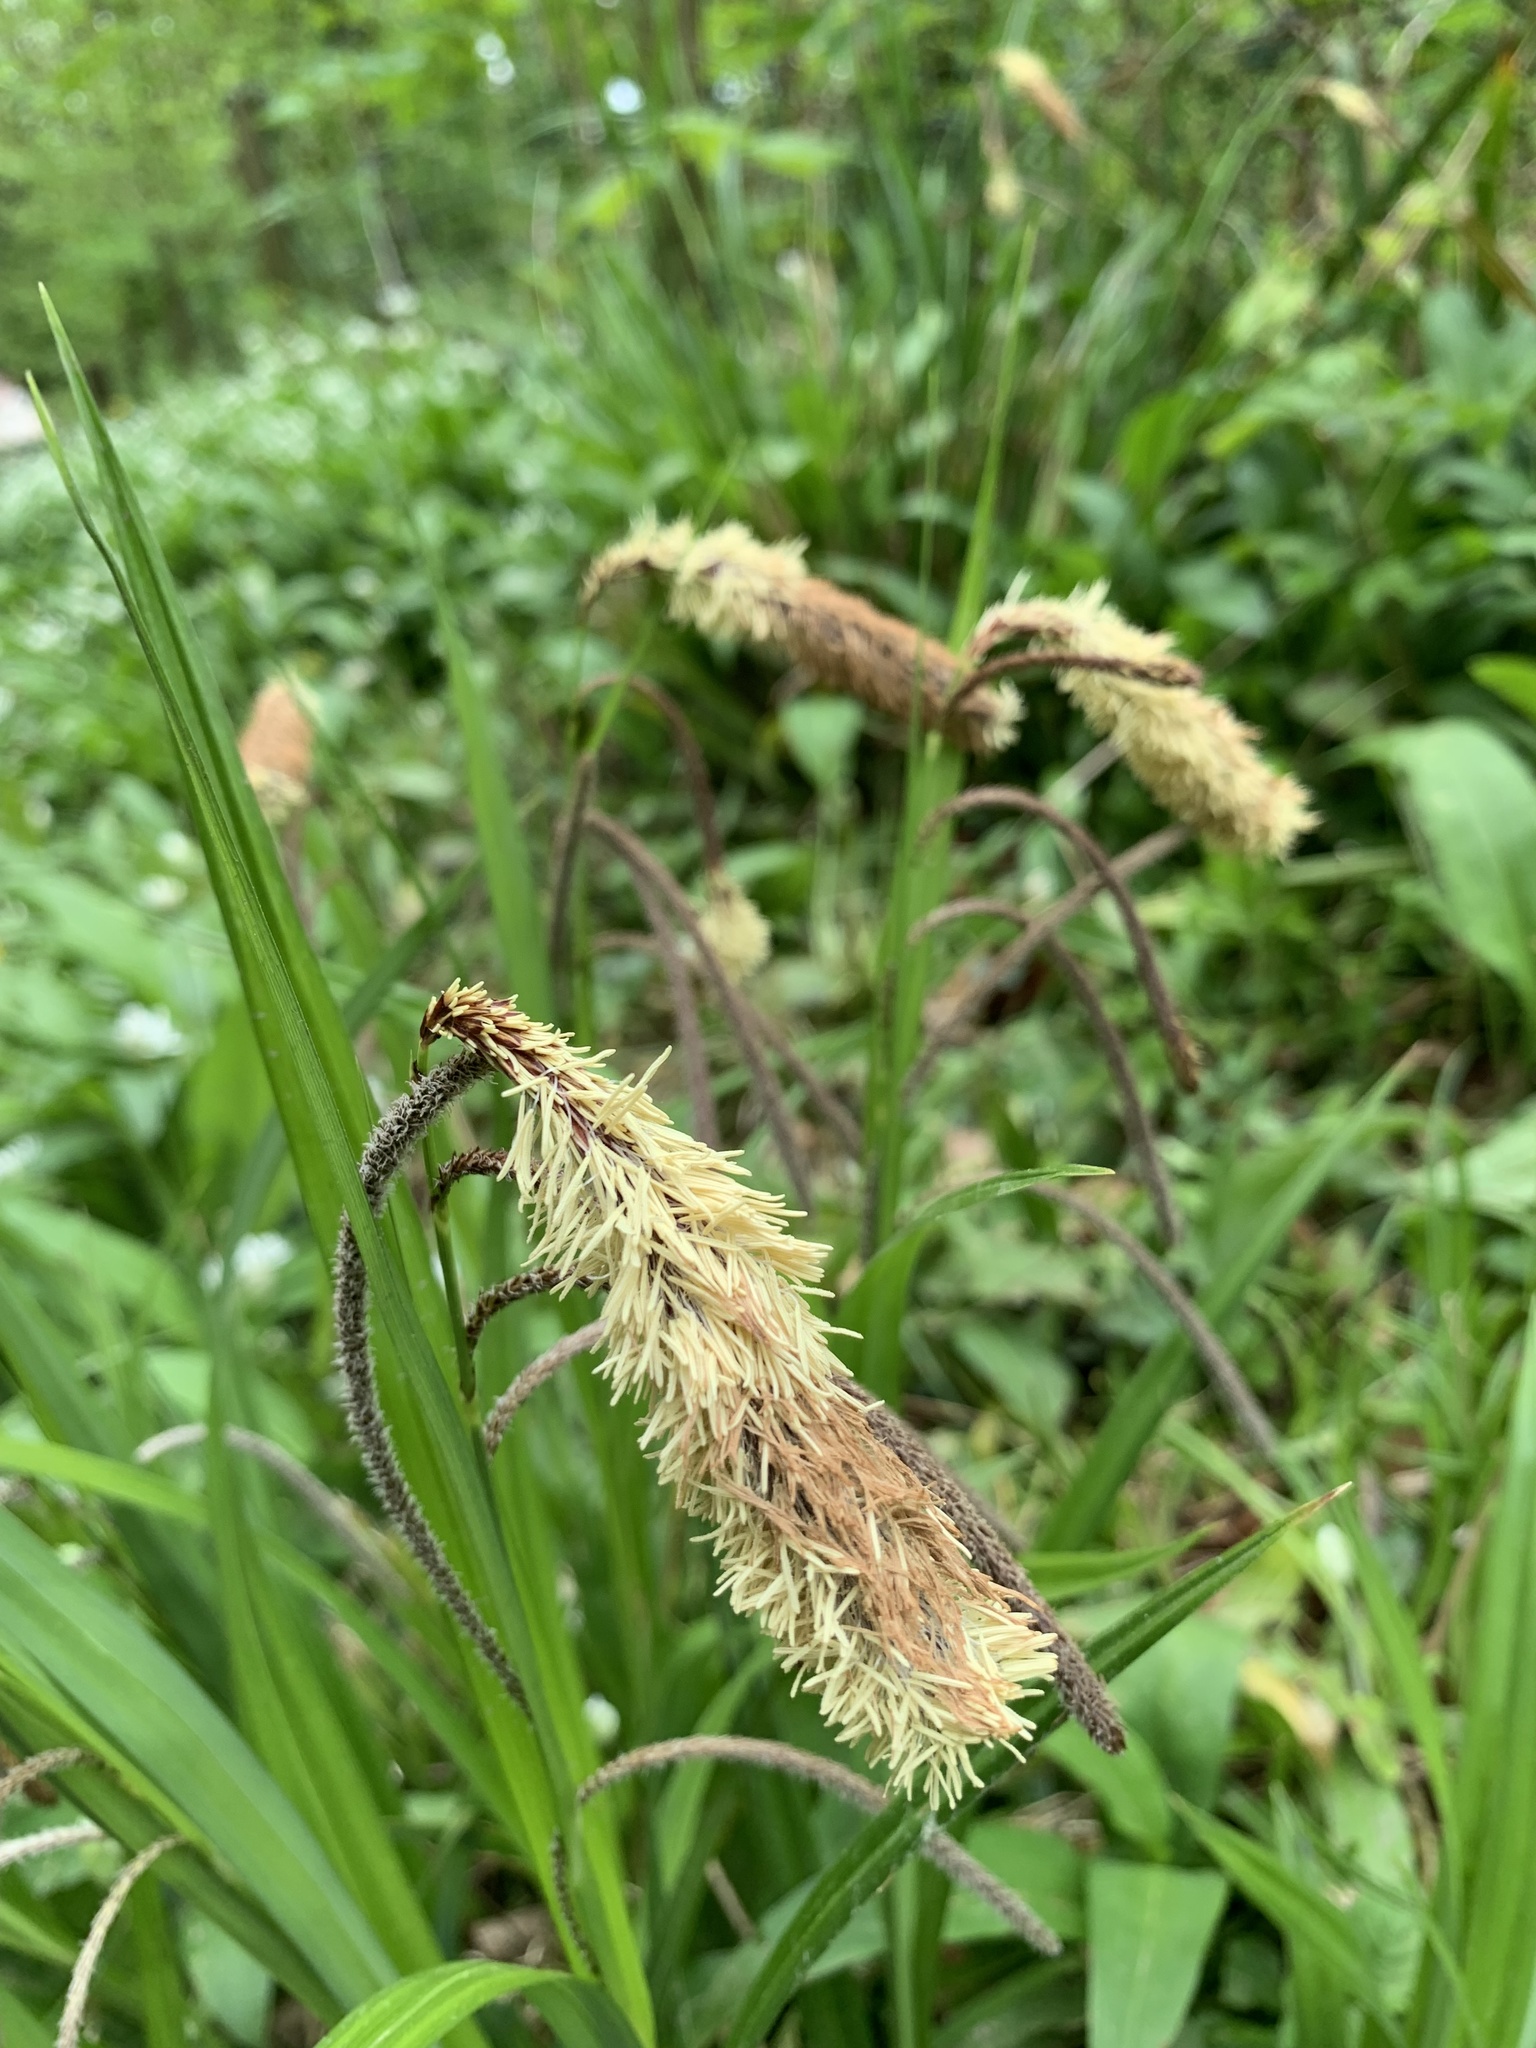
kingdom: Plantae
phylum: Tracheophyta
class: Liliopsida
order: Poales
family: Cyperaceae
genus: Carex
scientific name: Carex pendula
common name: Pendulous sedge
